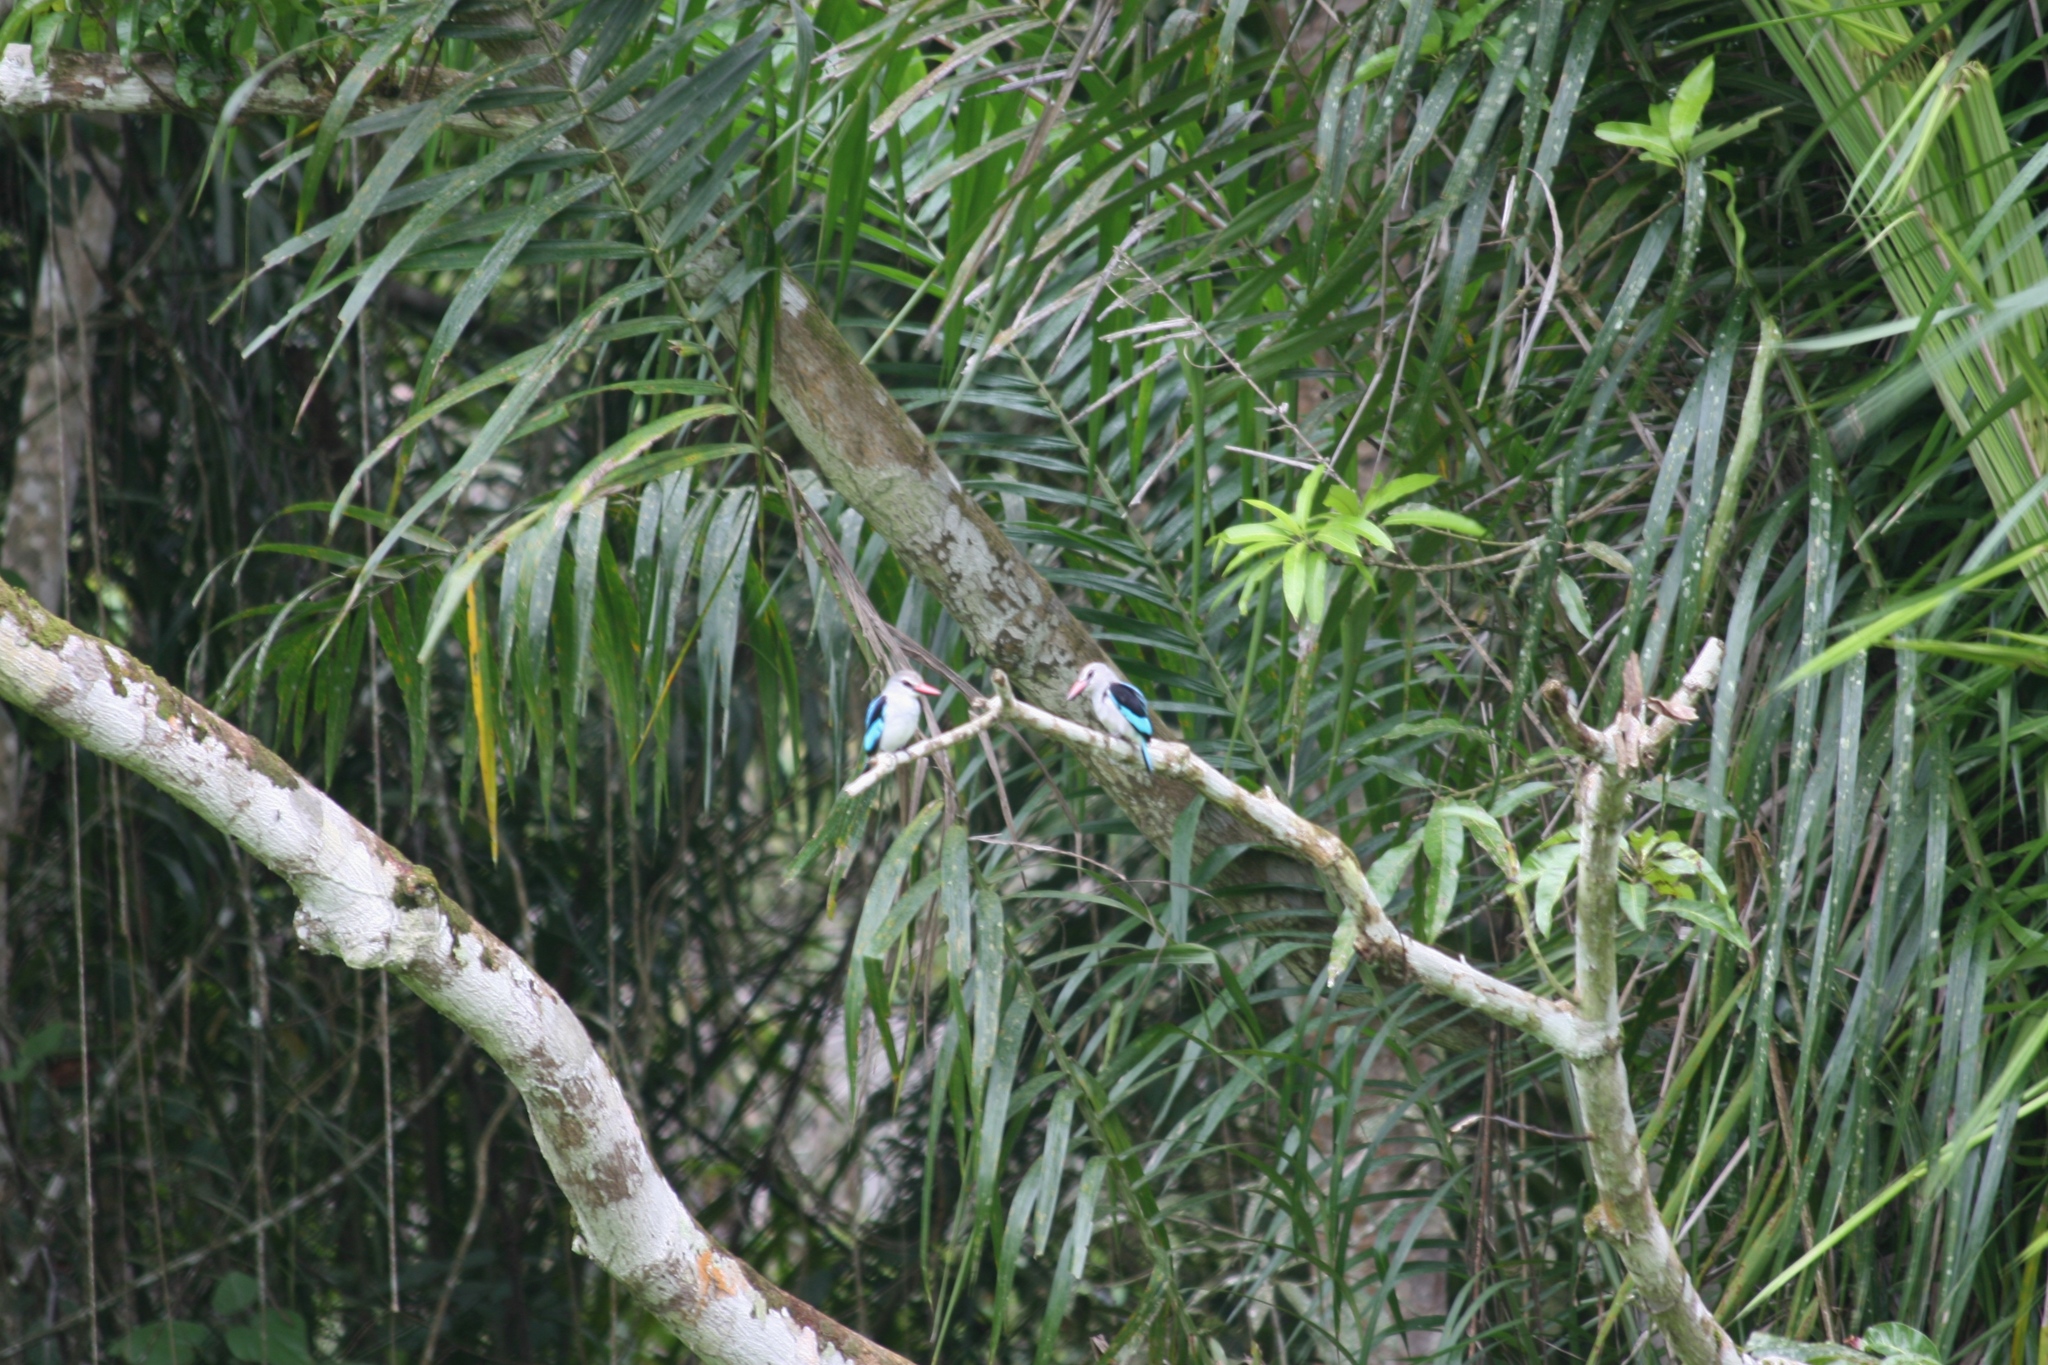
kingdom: Animalia
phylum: Chordata
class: Aves
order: Coraciiformes
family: Alcedinidae
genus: Halcyon
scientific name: Halcyon senegalensis
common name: Woodland kingfisher
